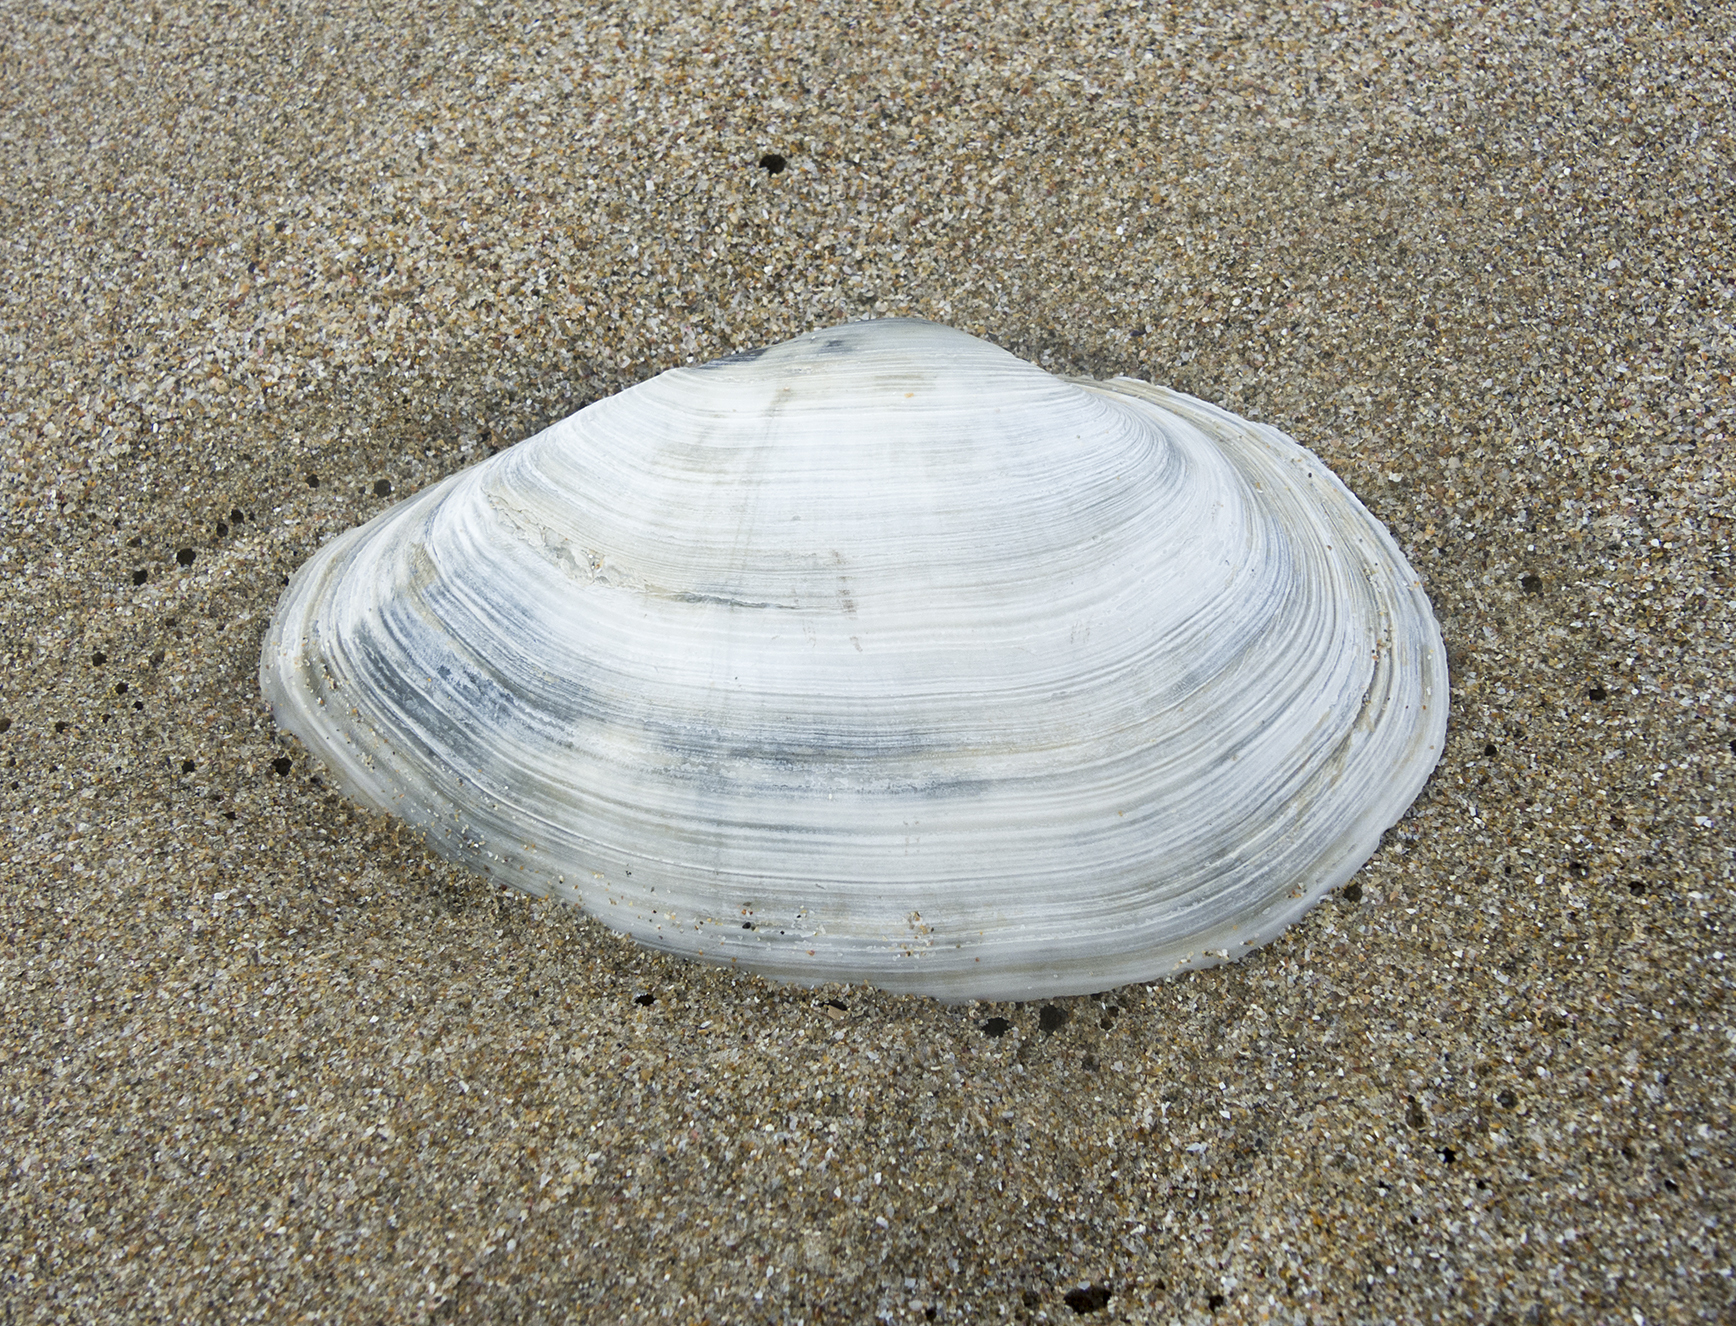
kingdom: Animalia
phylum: Mollusca
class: Bivalvia
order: Myida
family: Myidae
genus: Mya
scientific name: Mya arenaria
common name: Soft-shelled clam
